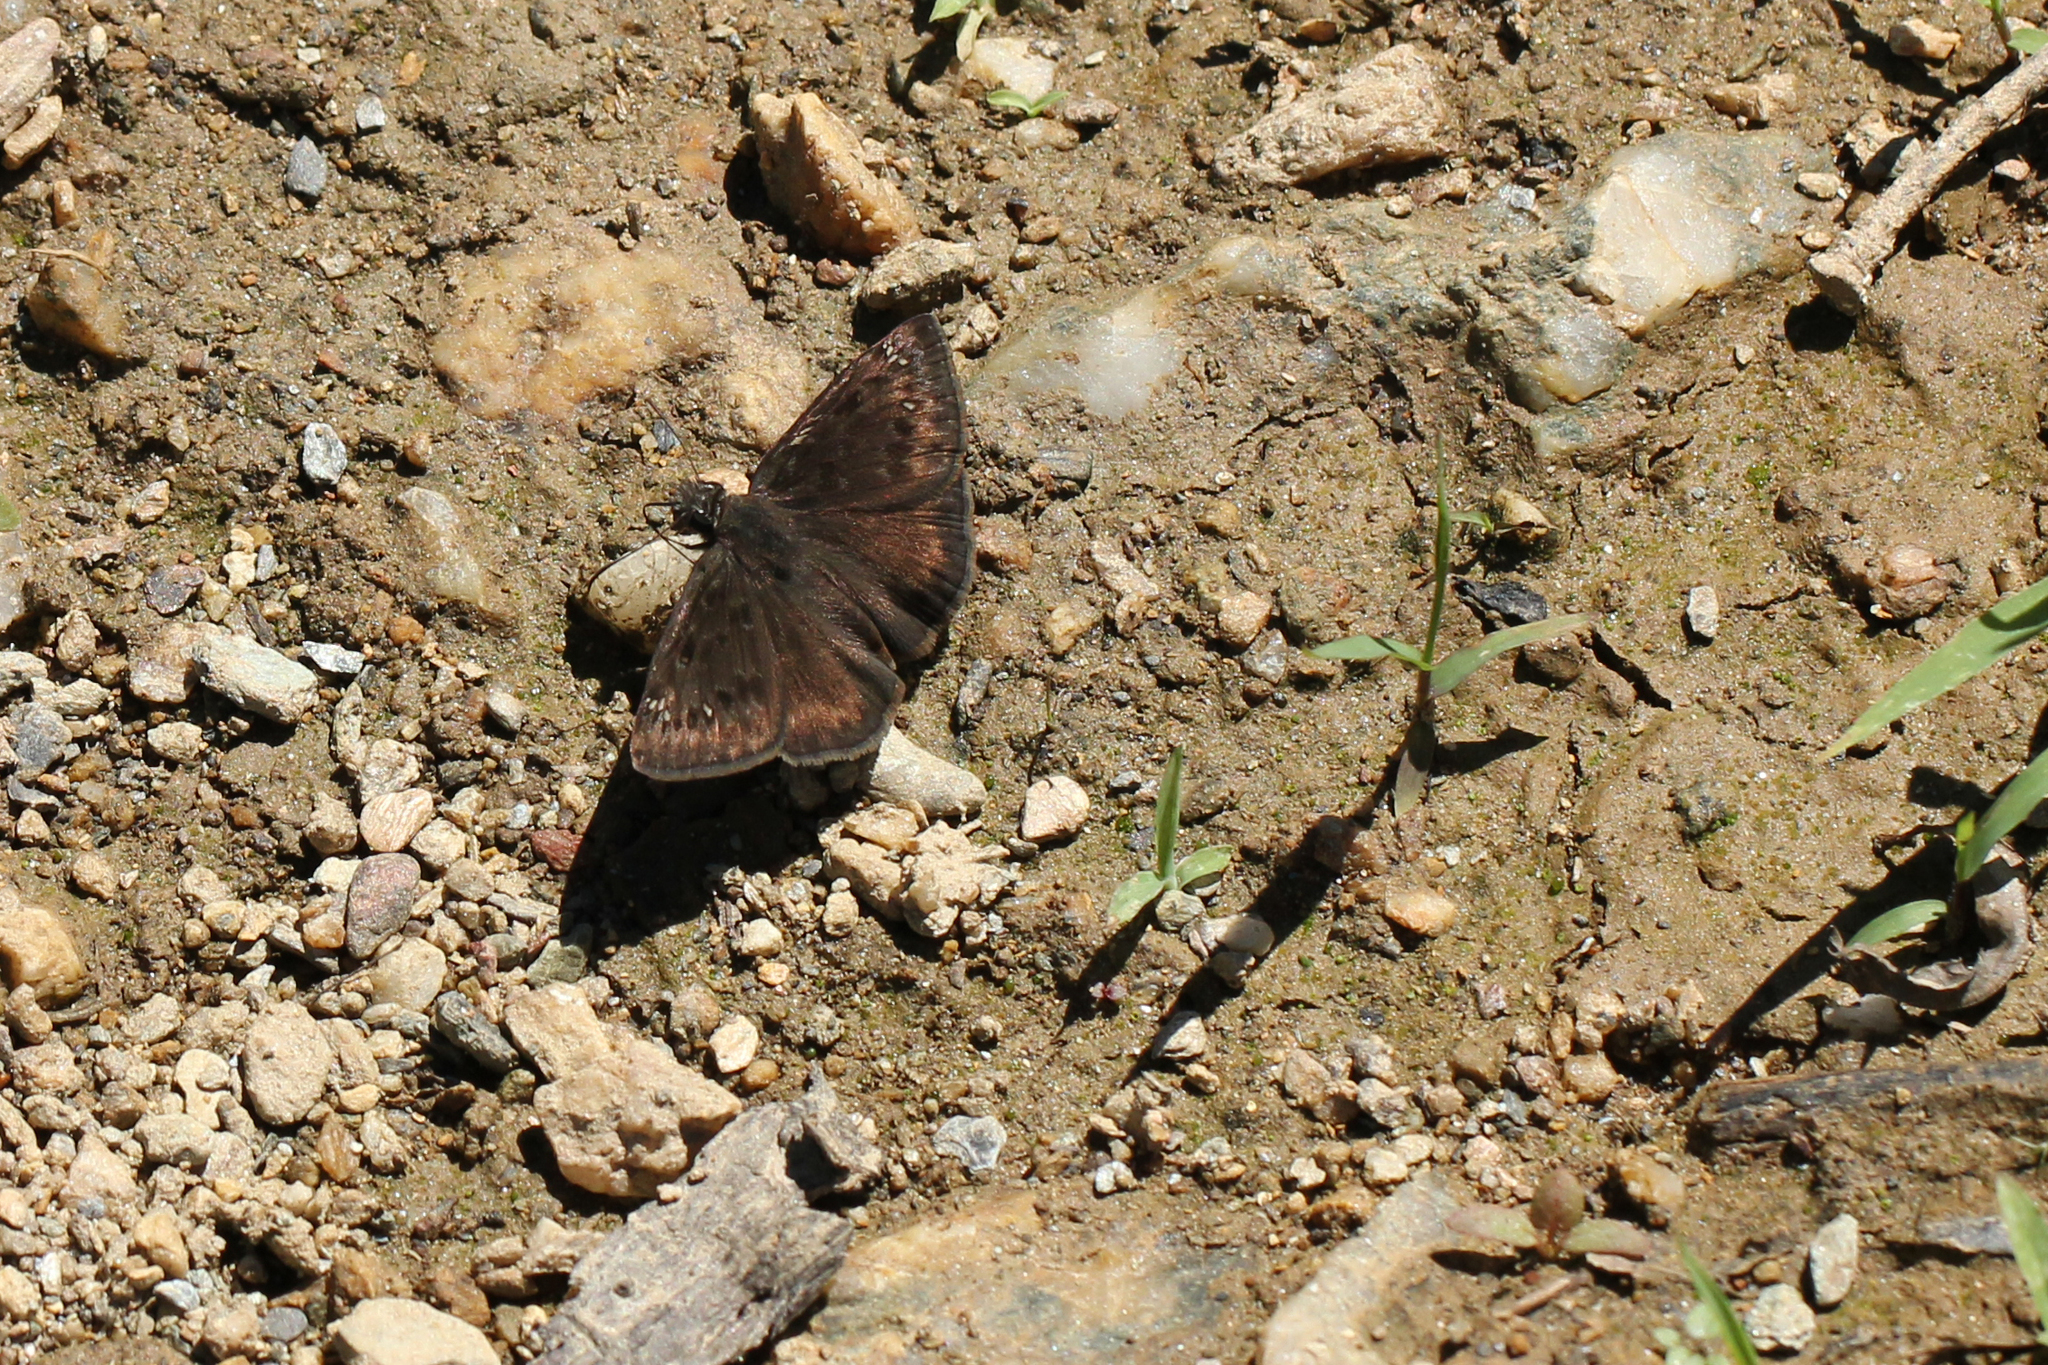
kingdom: Animalia
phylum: Arthropoda
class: Insecta
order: Lepidoptera
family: Hesperiidae
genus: Erynnis
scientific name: Erynnis baptisiae
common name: Wild indigo duskywing
